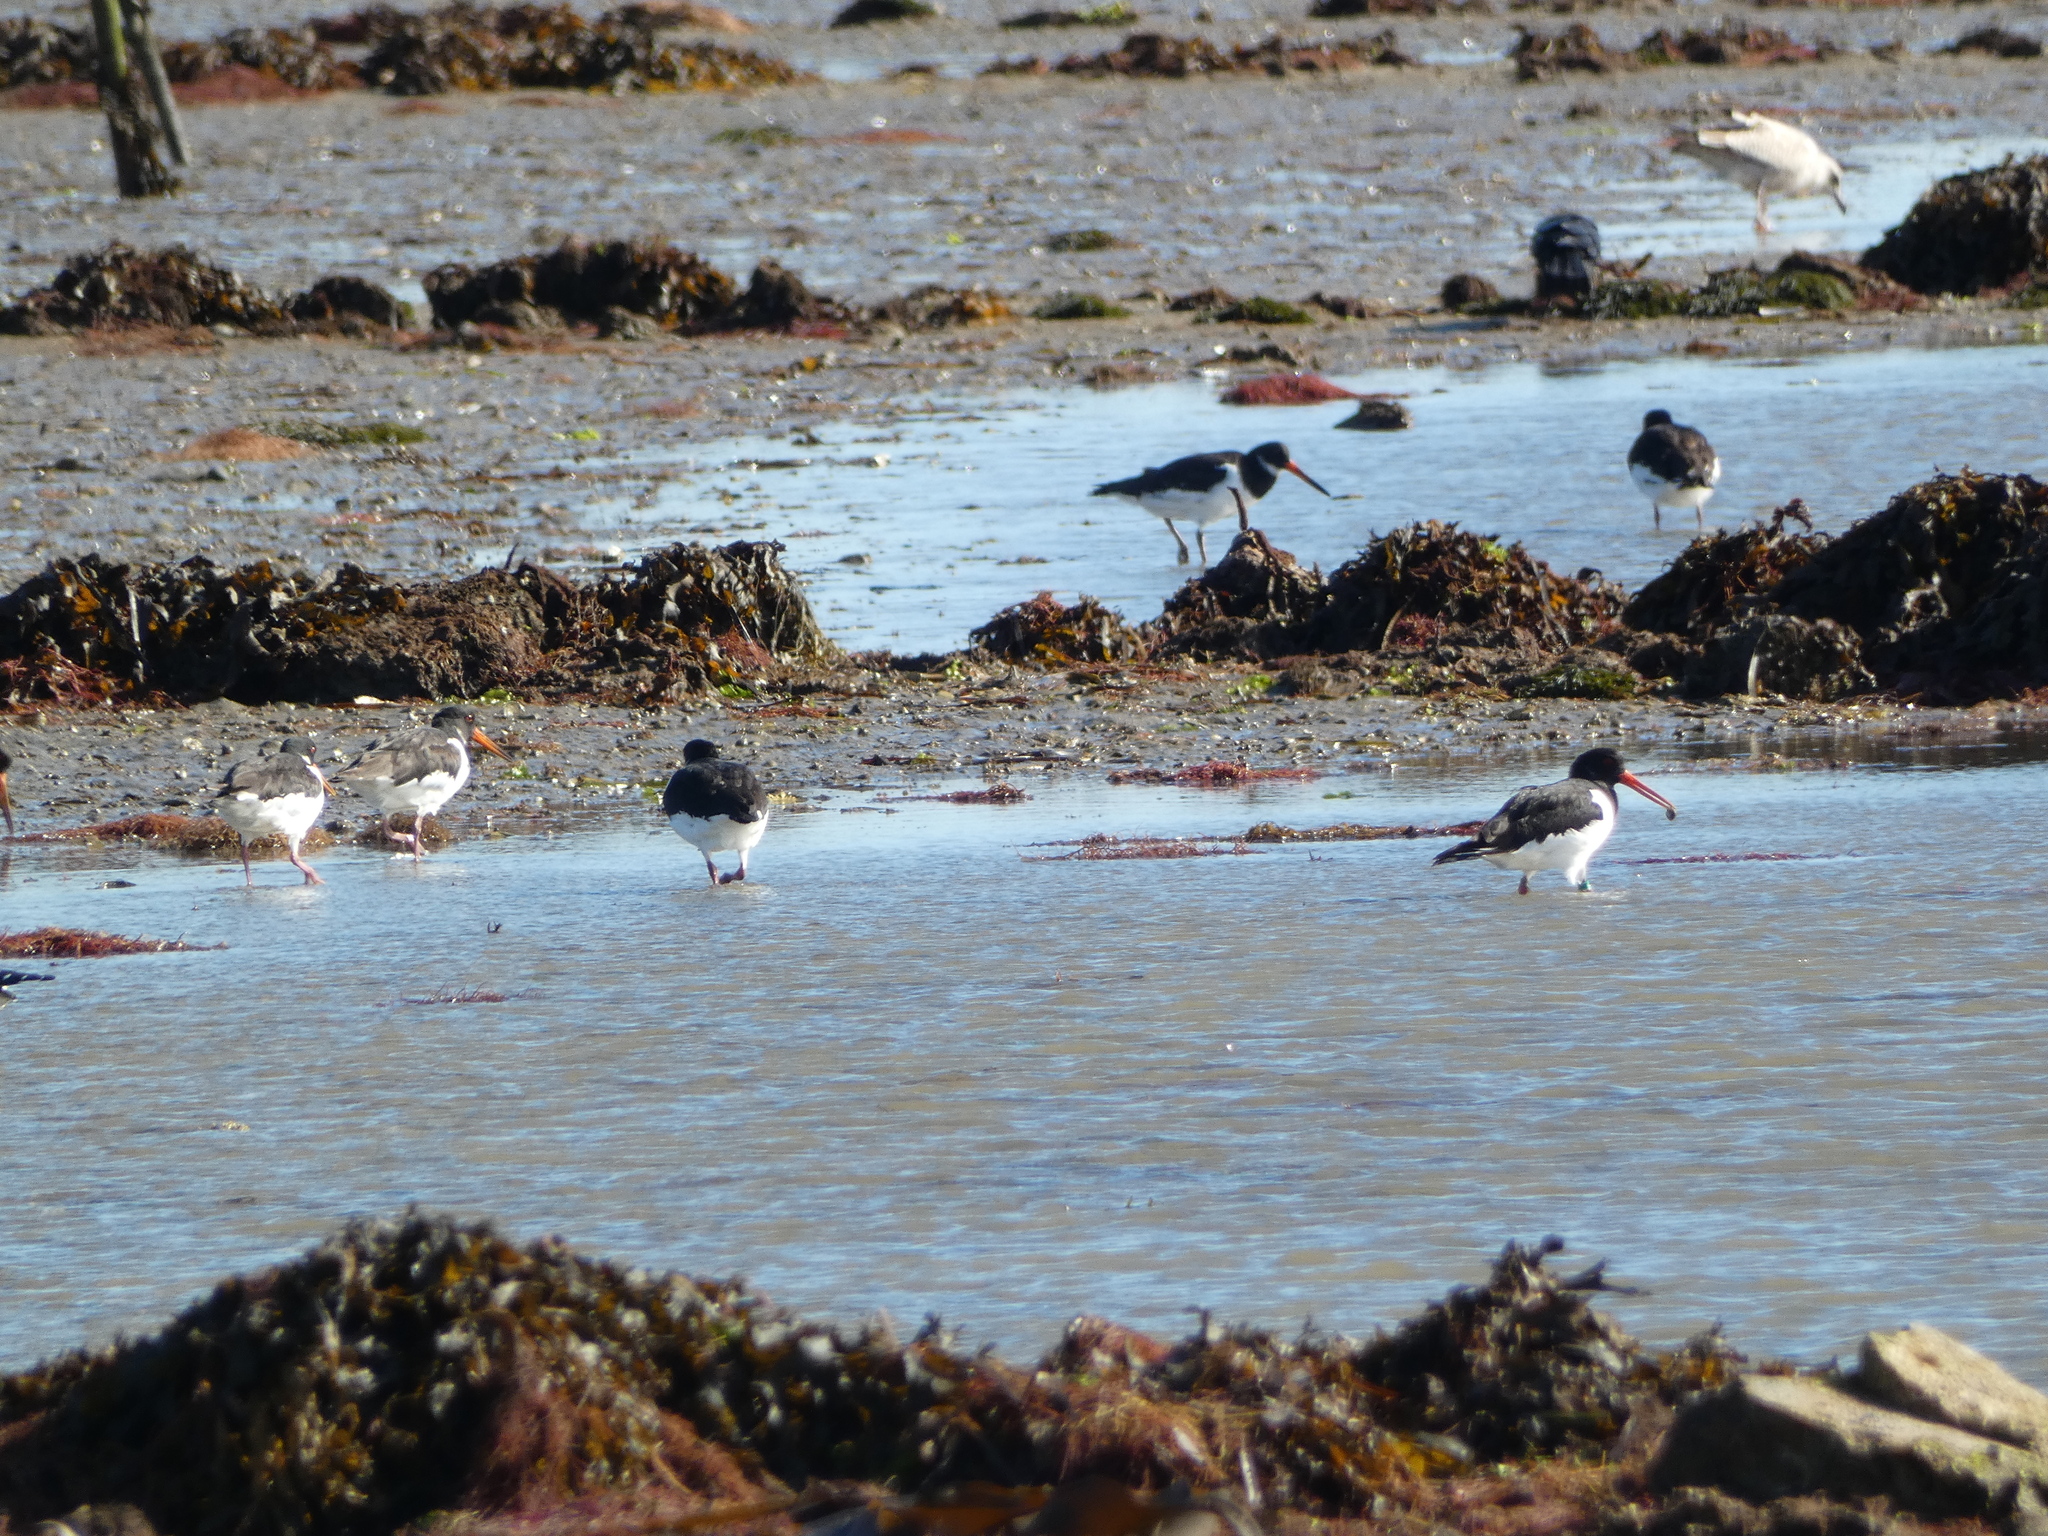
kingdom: Animalia
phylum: Chordata
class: Aves
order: Charadriiformes
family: Haematopodidae
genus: Haematopus
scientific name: Haematopus ostralegus
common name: Eurasian oystercatcher
